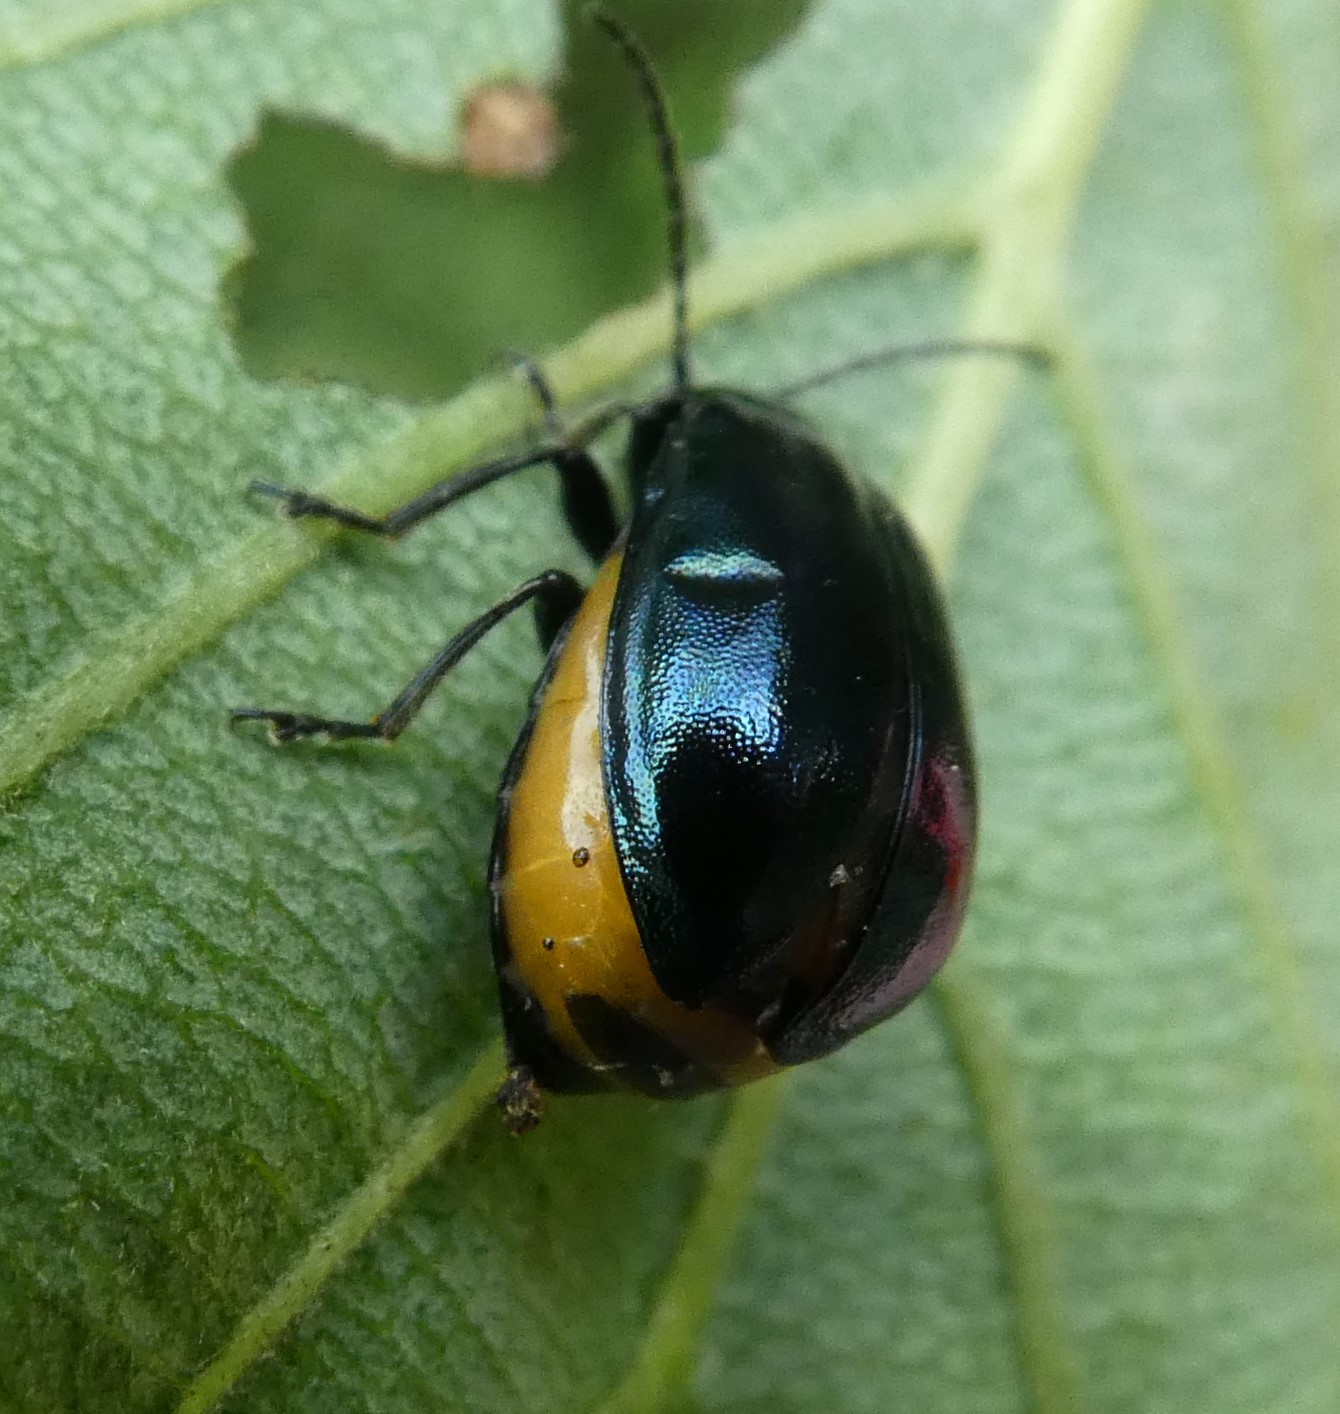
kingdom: Animalia
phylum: Arthropoda
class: Insecta
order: Coleoptera
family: Chrysomelidae
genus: Agelastica
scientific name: Agelastica alni
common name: Alder leaf beetle
